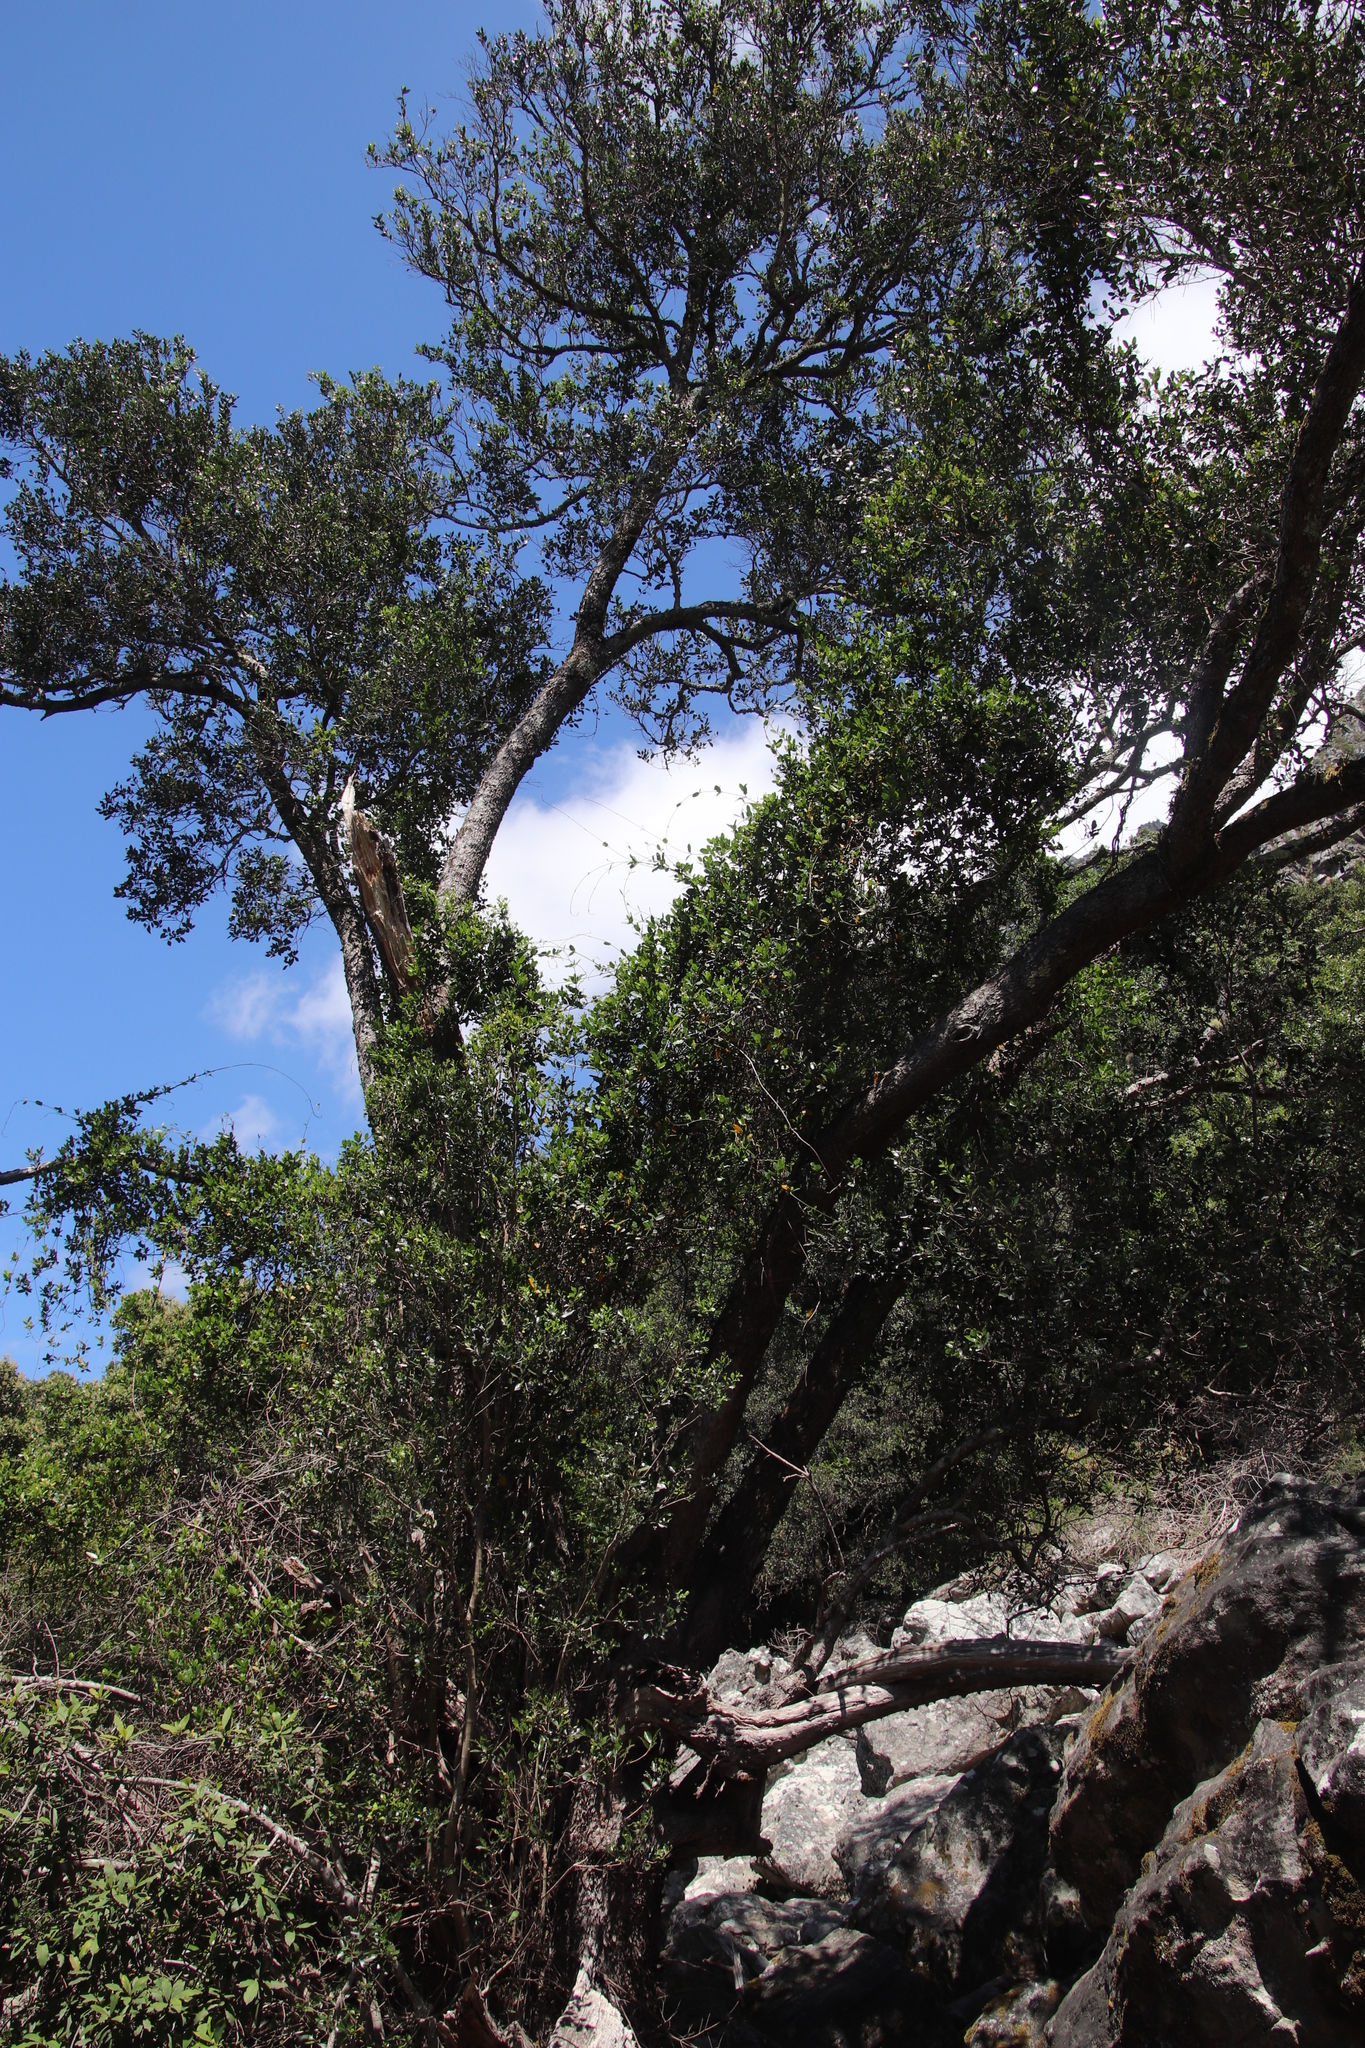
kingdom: Plantae
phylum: Tracheophyta
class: Magnoliopsida
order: Myrtales
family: Penaeaceae
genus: Olinia
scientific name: Olinia ventosa
